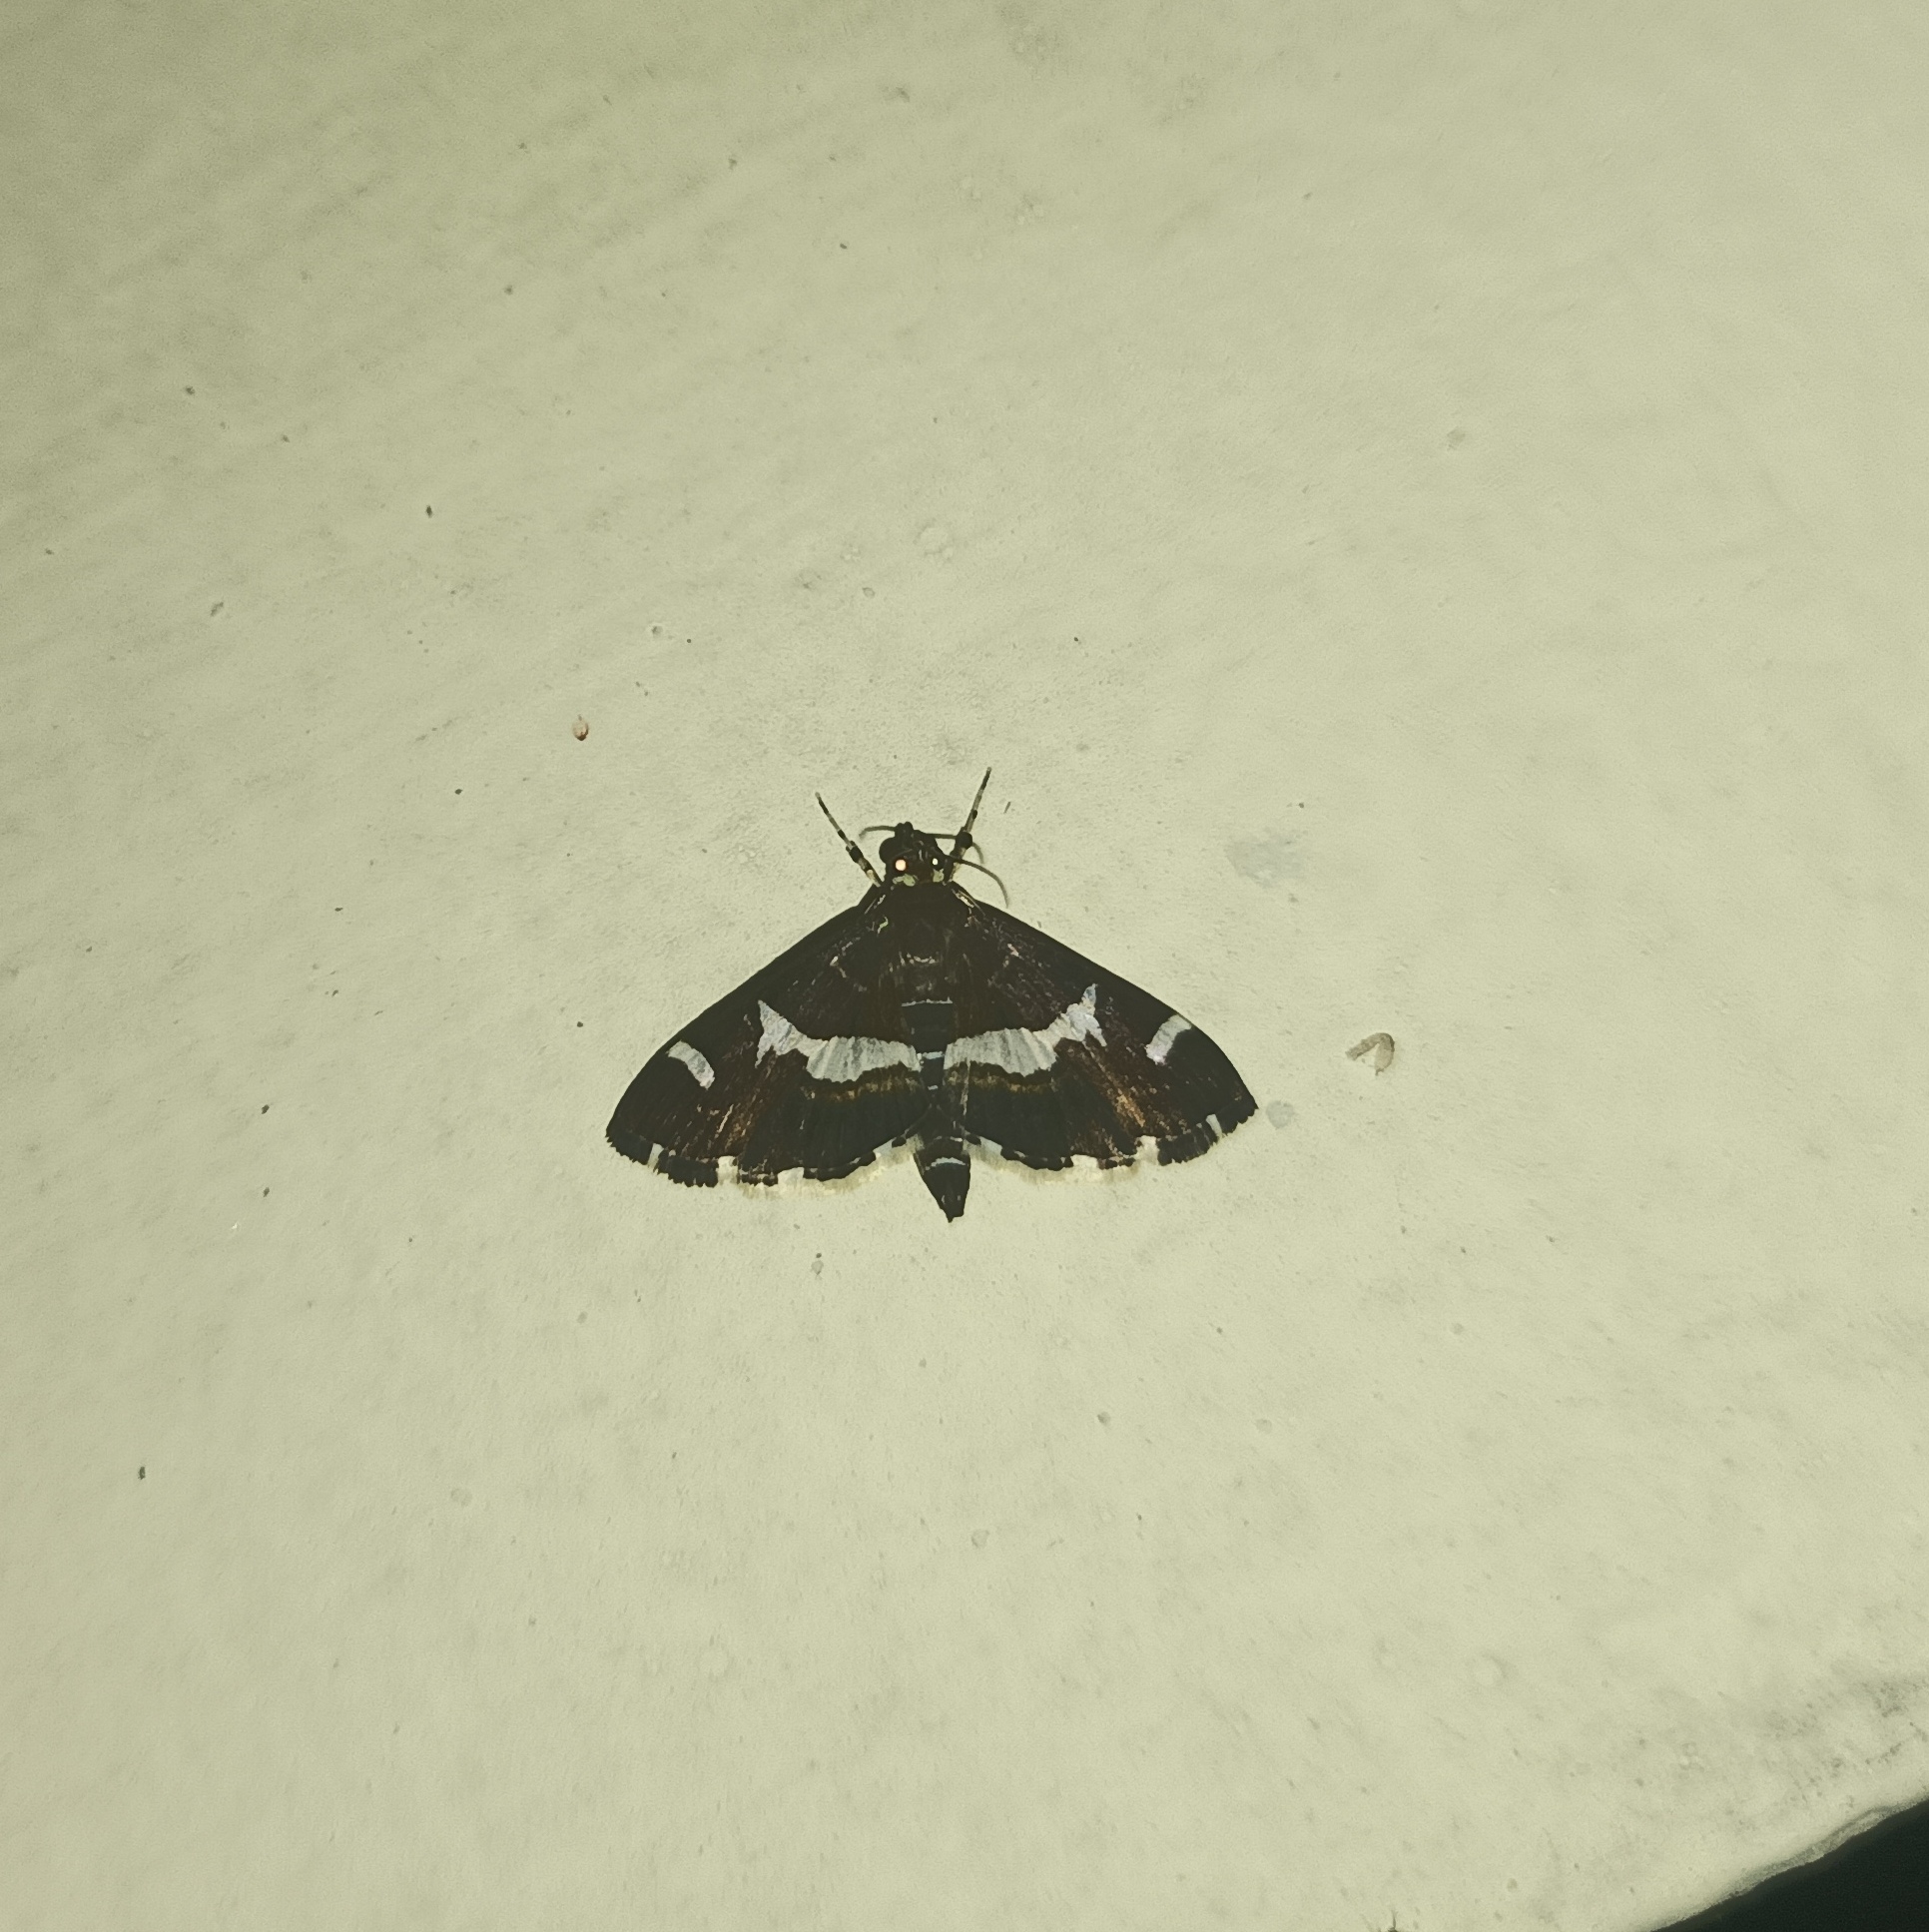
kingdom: Animalia
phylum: Arthropoda
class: Insecta
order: Lepidoptera
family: Crambidae
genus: Spoladea
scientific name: Spoladea recurvalis
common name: Beet webworm moth
